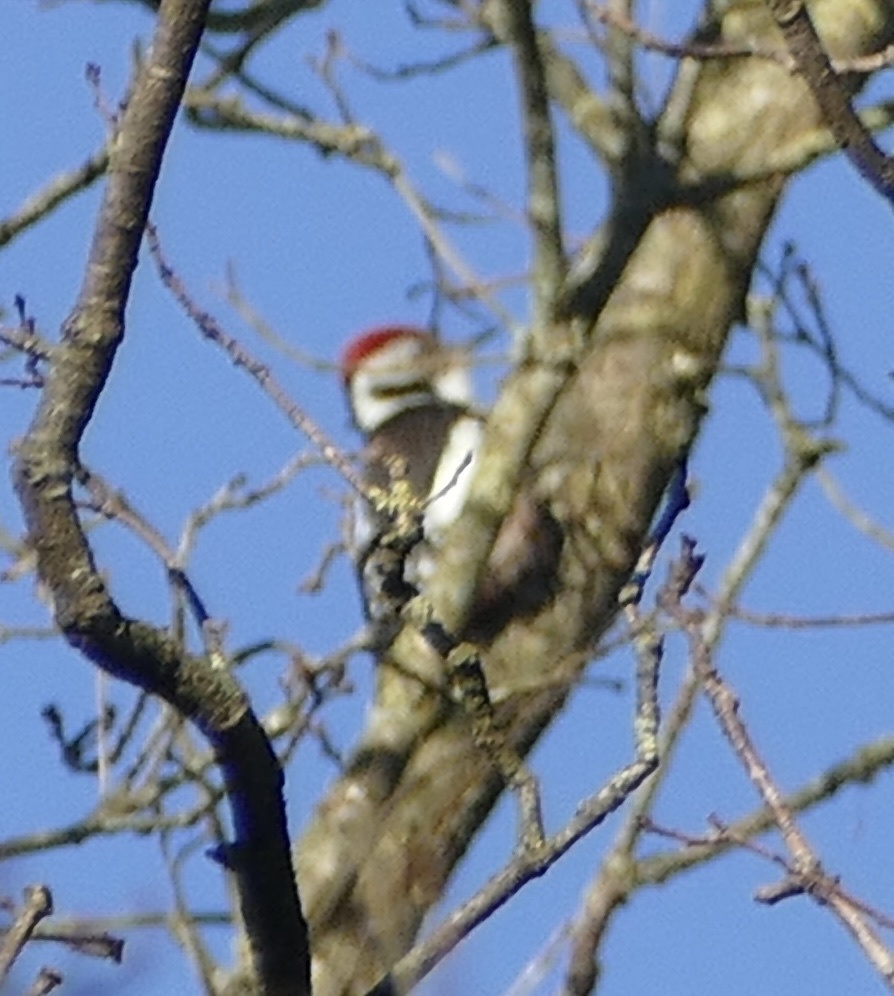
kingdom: Animalia
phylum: Chordata
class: Aves
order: Piciformes
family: Picidae
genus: Dendrocoptes
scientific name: Dendrocoptes medius
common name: Middle spotted woodpecker
